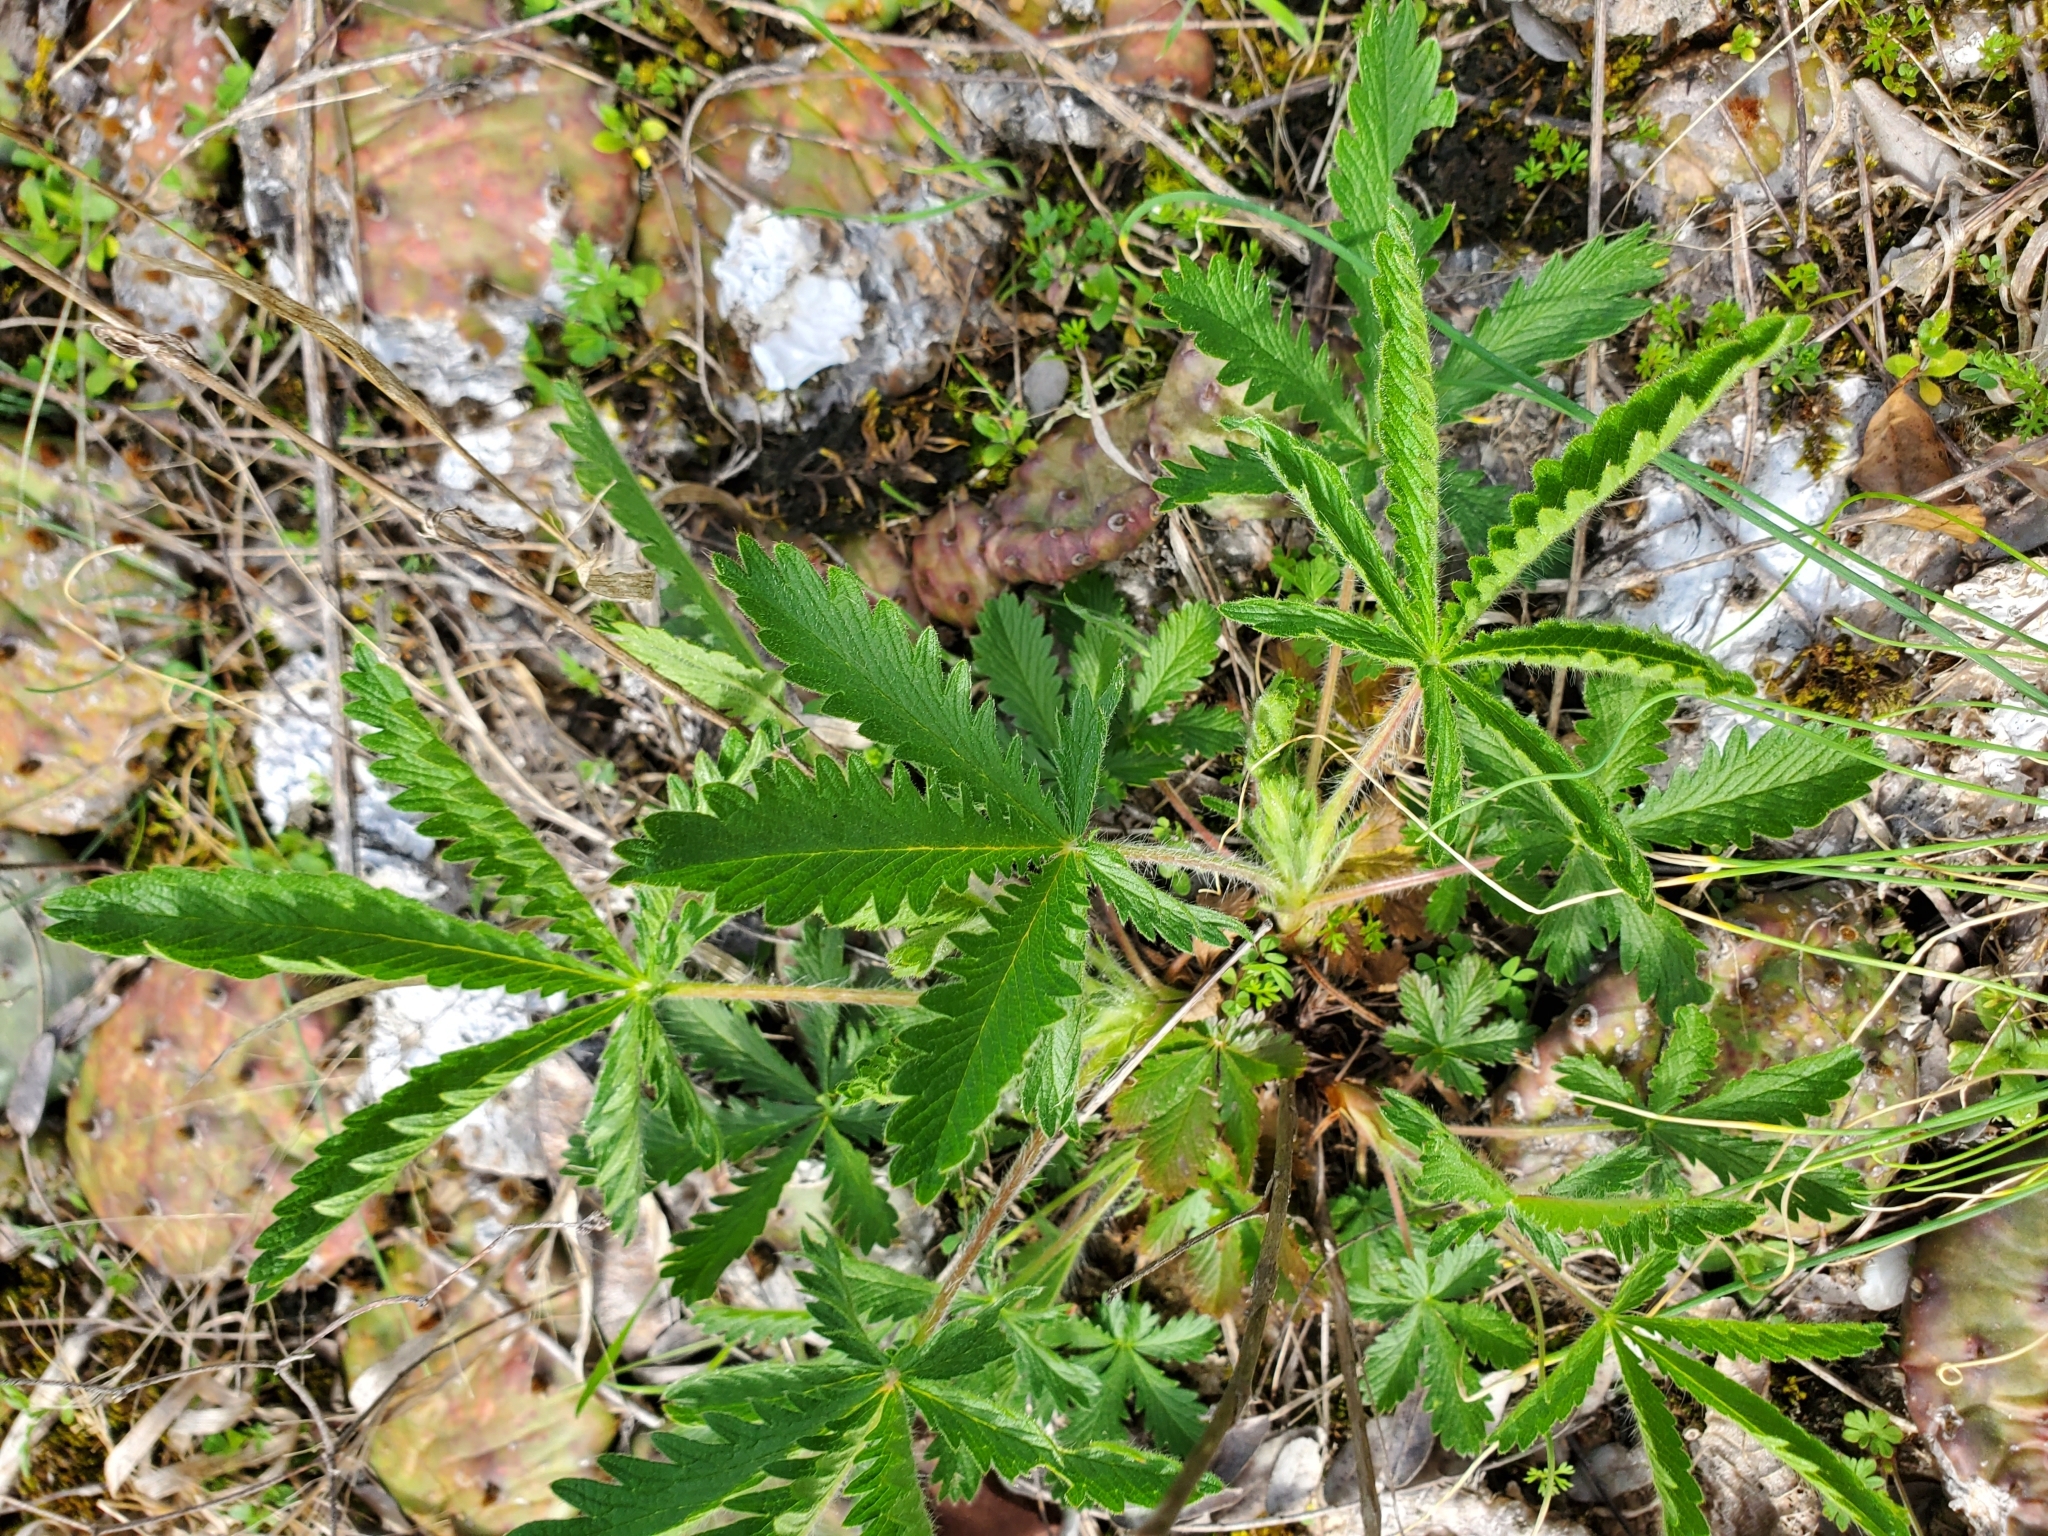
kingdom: Plantae
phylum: Tracheophyta
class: Magnoliopsida
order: Rosales
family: Rosaceae
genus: Potentilla
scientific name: Potentilla recta
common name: Sulphur cinquefoil
